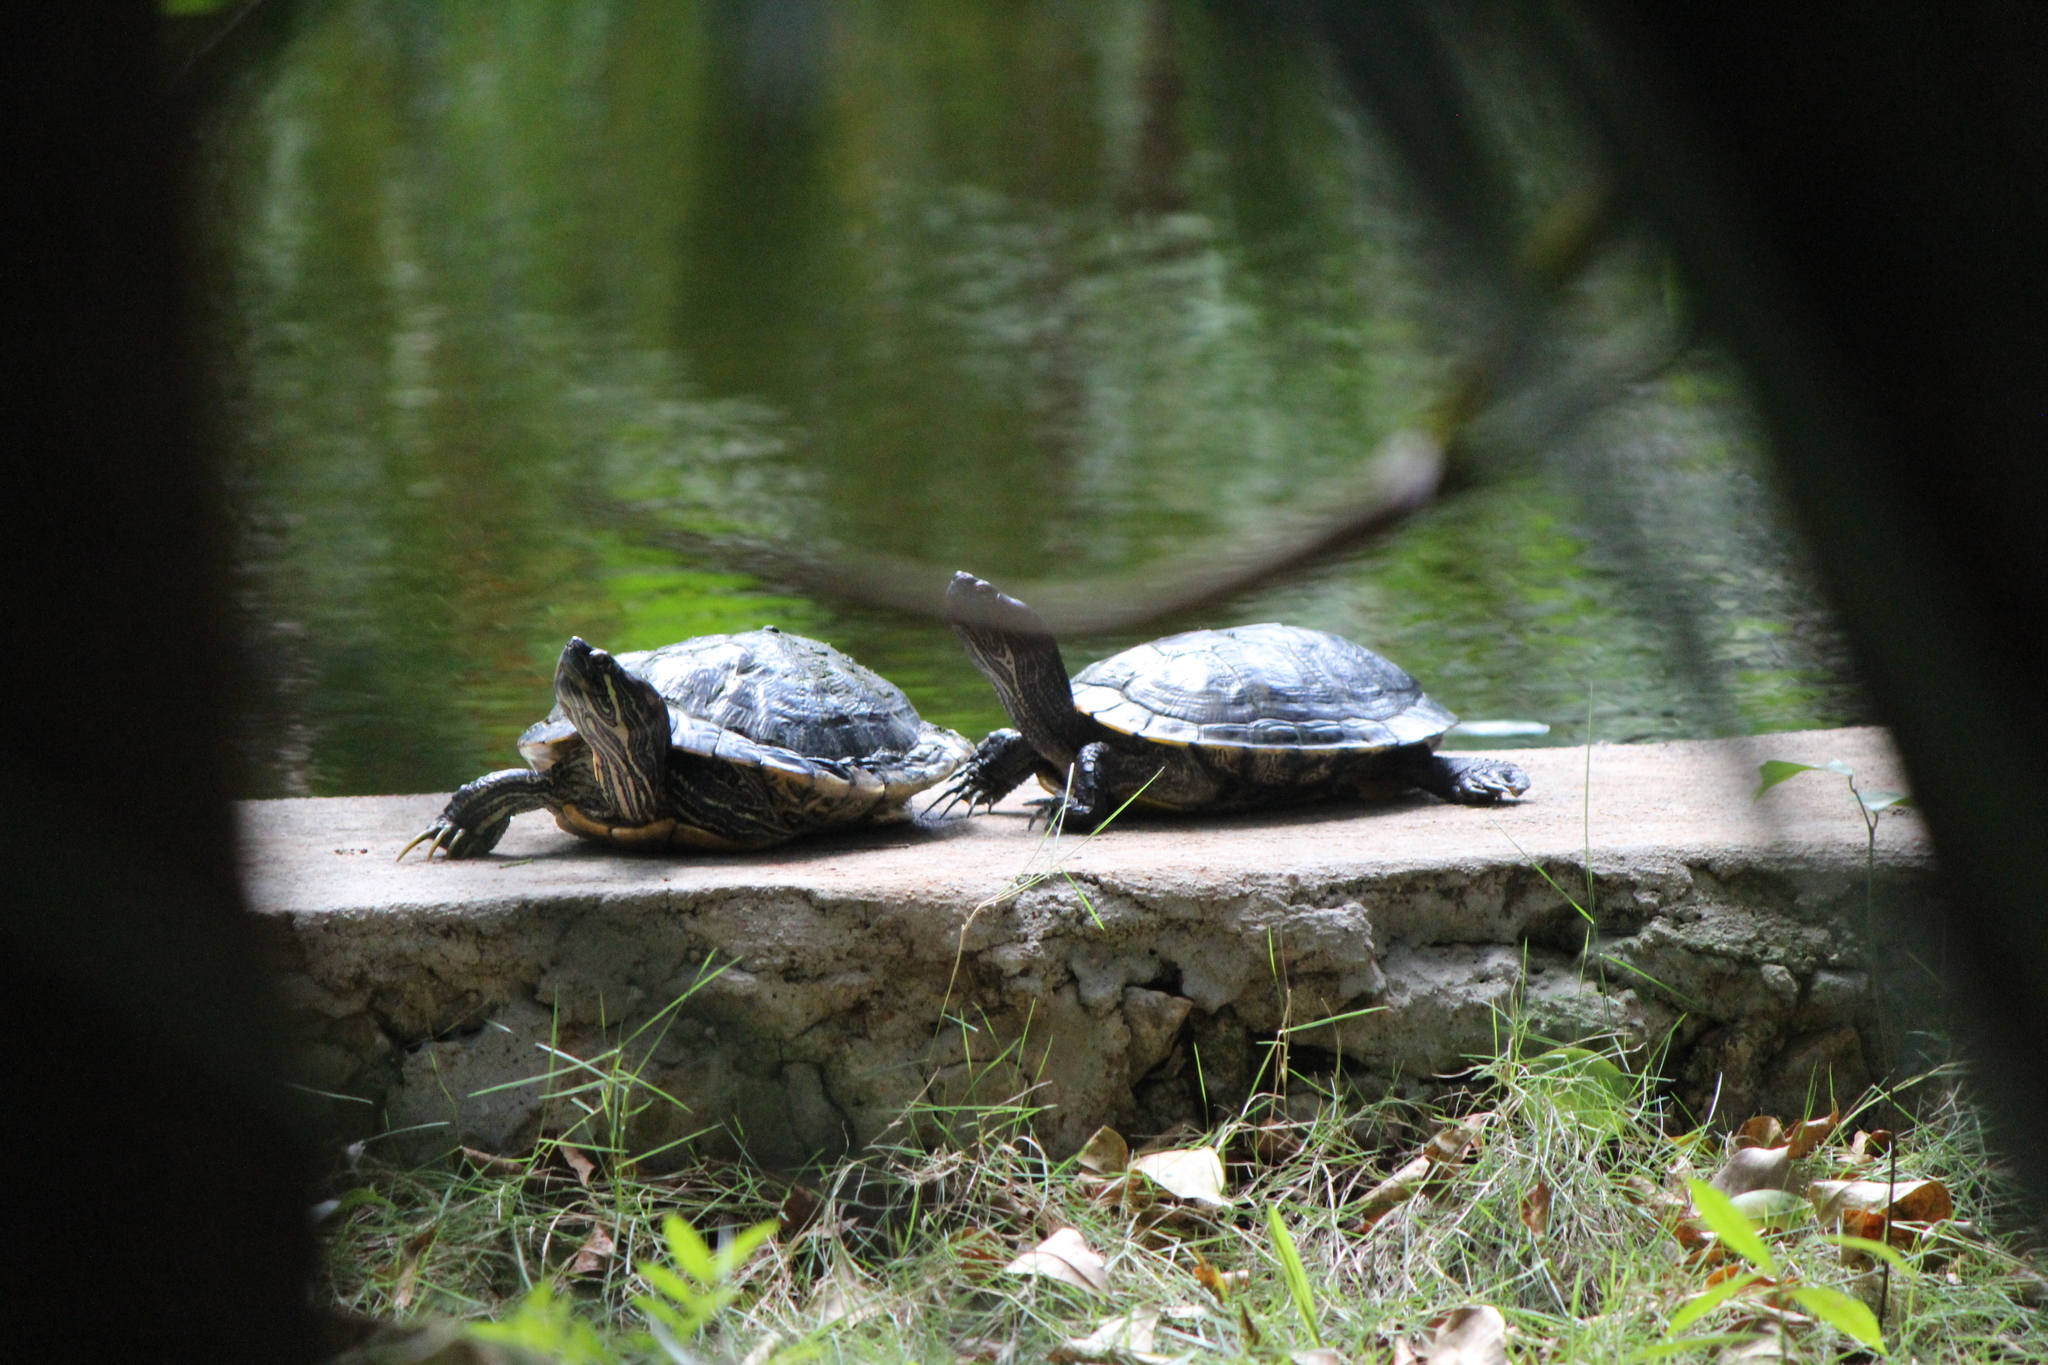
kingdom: Animalia
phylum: Chordata
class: Testudines
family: Emydidae
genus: Trachemys
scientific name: Trachemys venusta
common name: Mesoamerican slider
